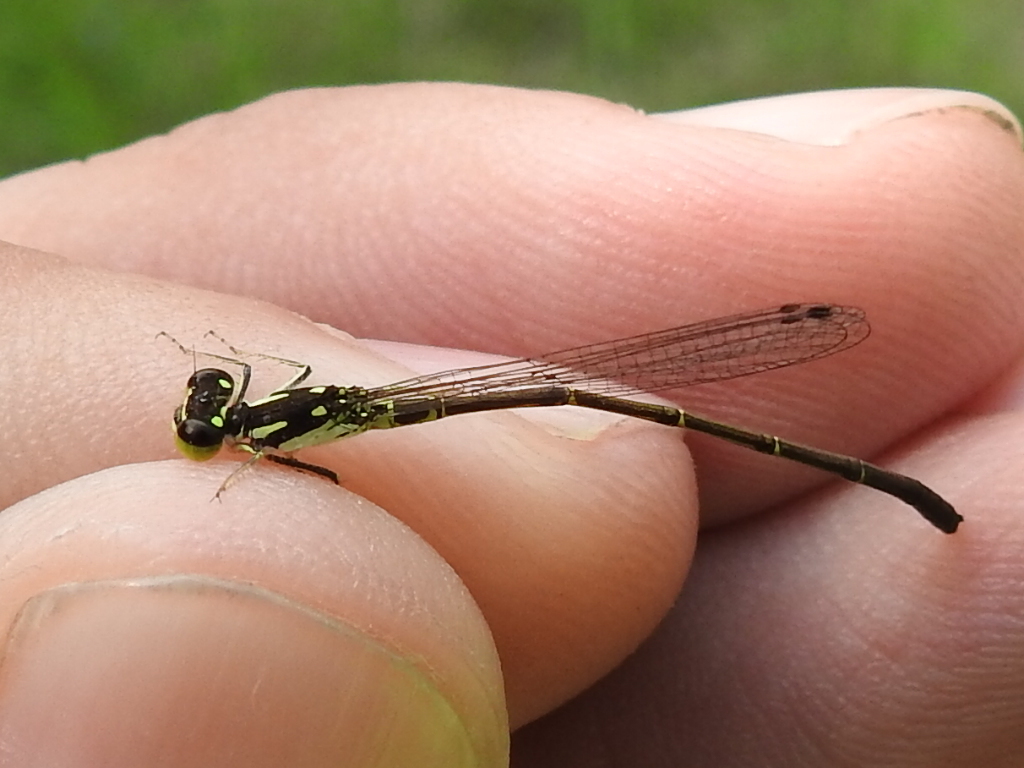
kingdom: Animalia
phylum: Arthropoda
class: Insecta
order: Odonata
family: Coenagrionidae
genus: Ischnura
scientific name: Ischnura posita
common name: Fragile forktail
